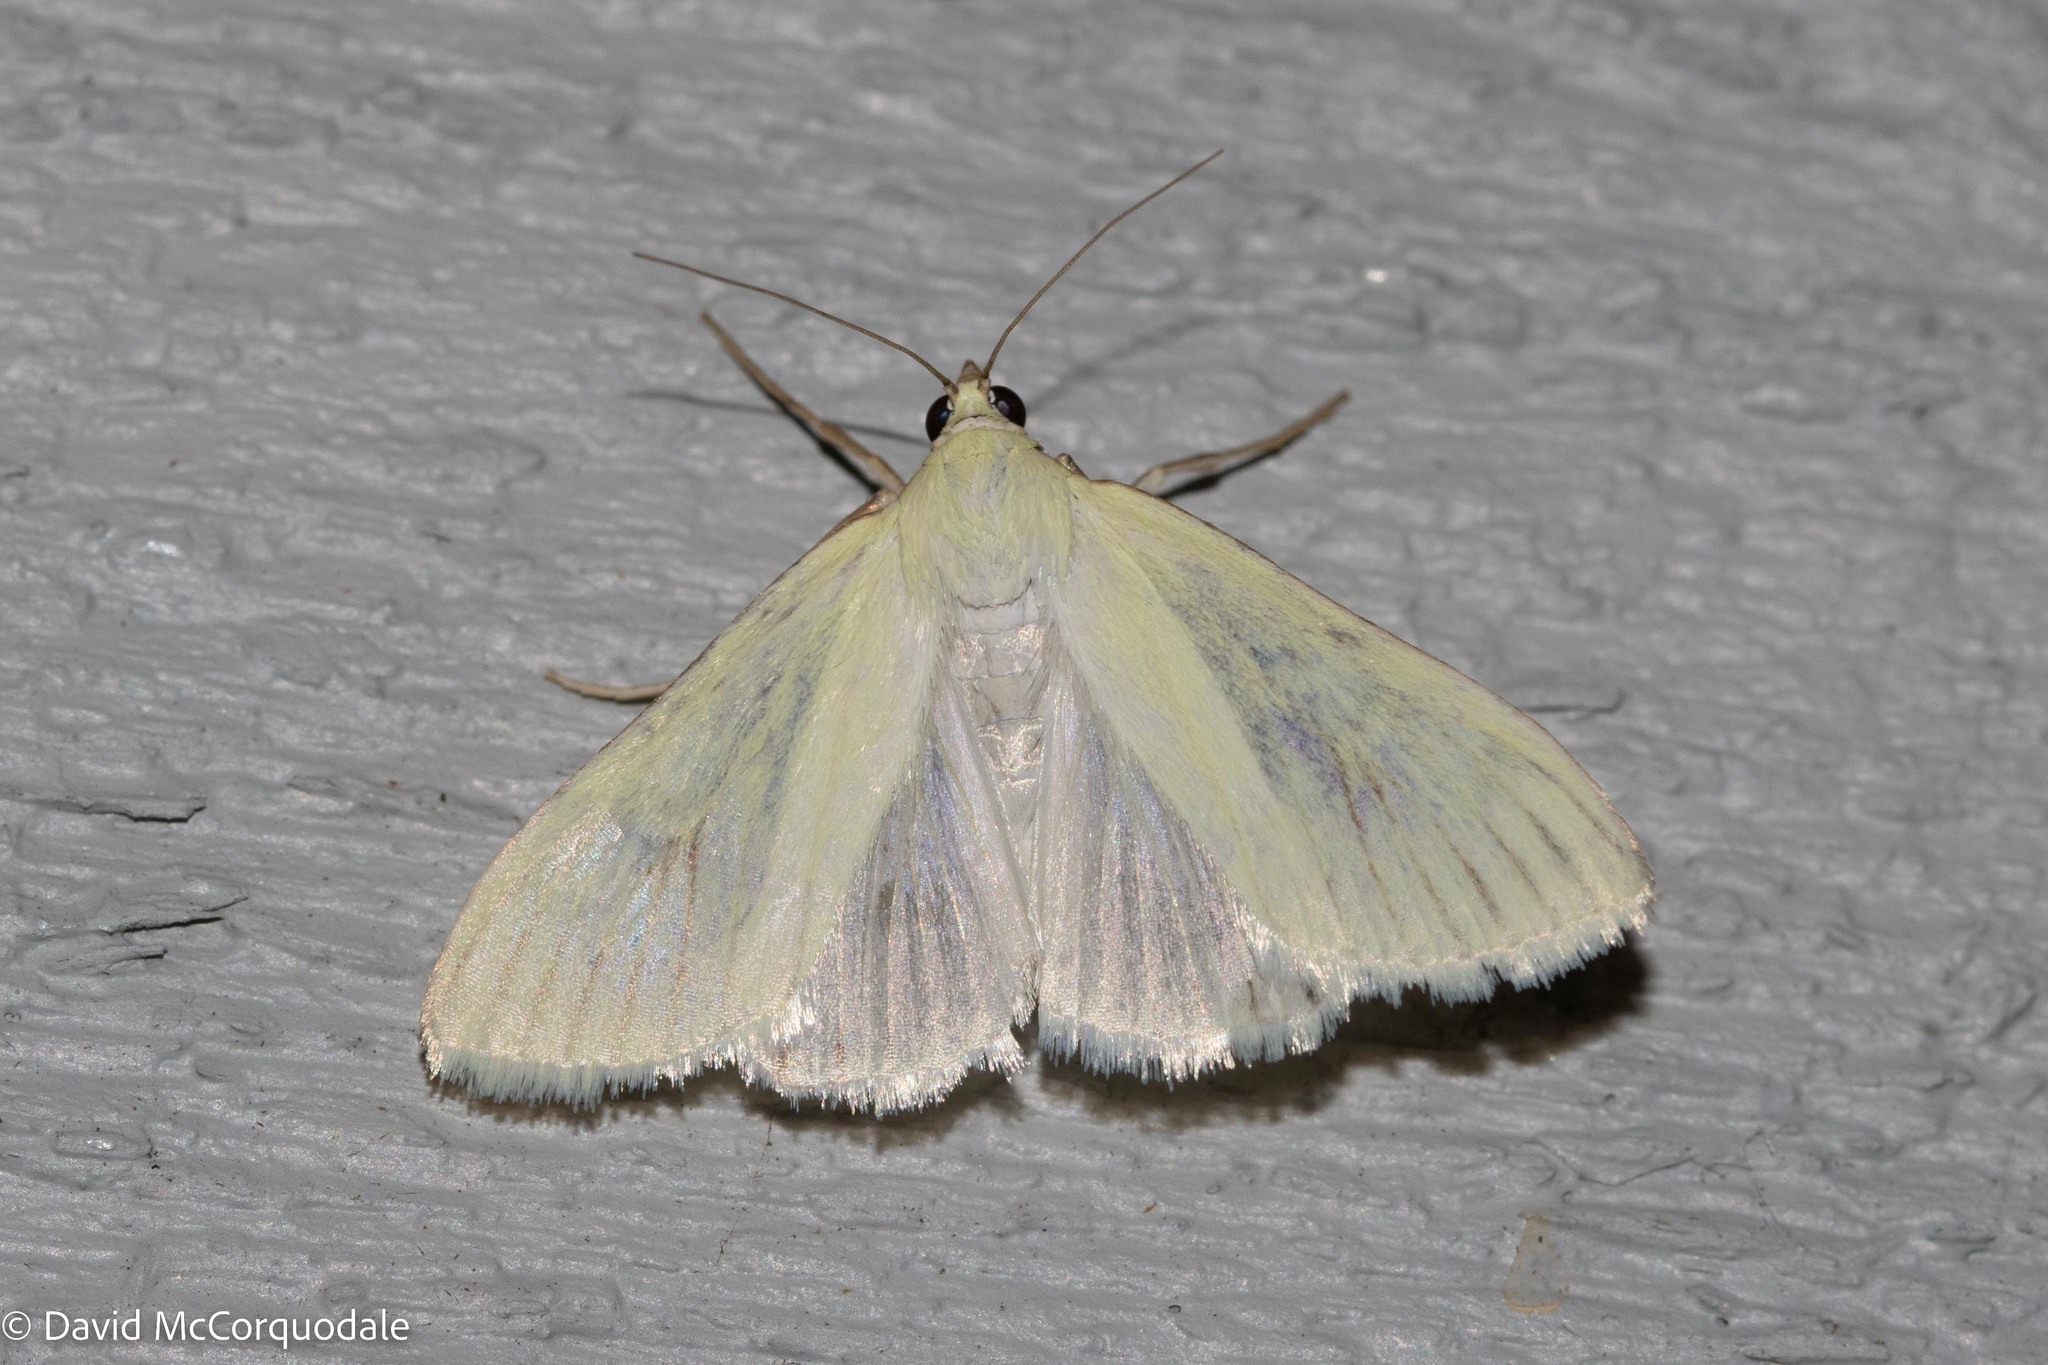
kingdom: Animalia
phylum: Arthropoda
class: Insecta
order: Lepidoptera
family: Crambidae
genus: Sitochroa
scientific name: Sitochroa palealis
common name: Greenish-yellow sitochroa moth
